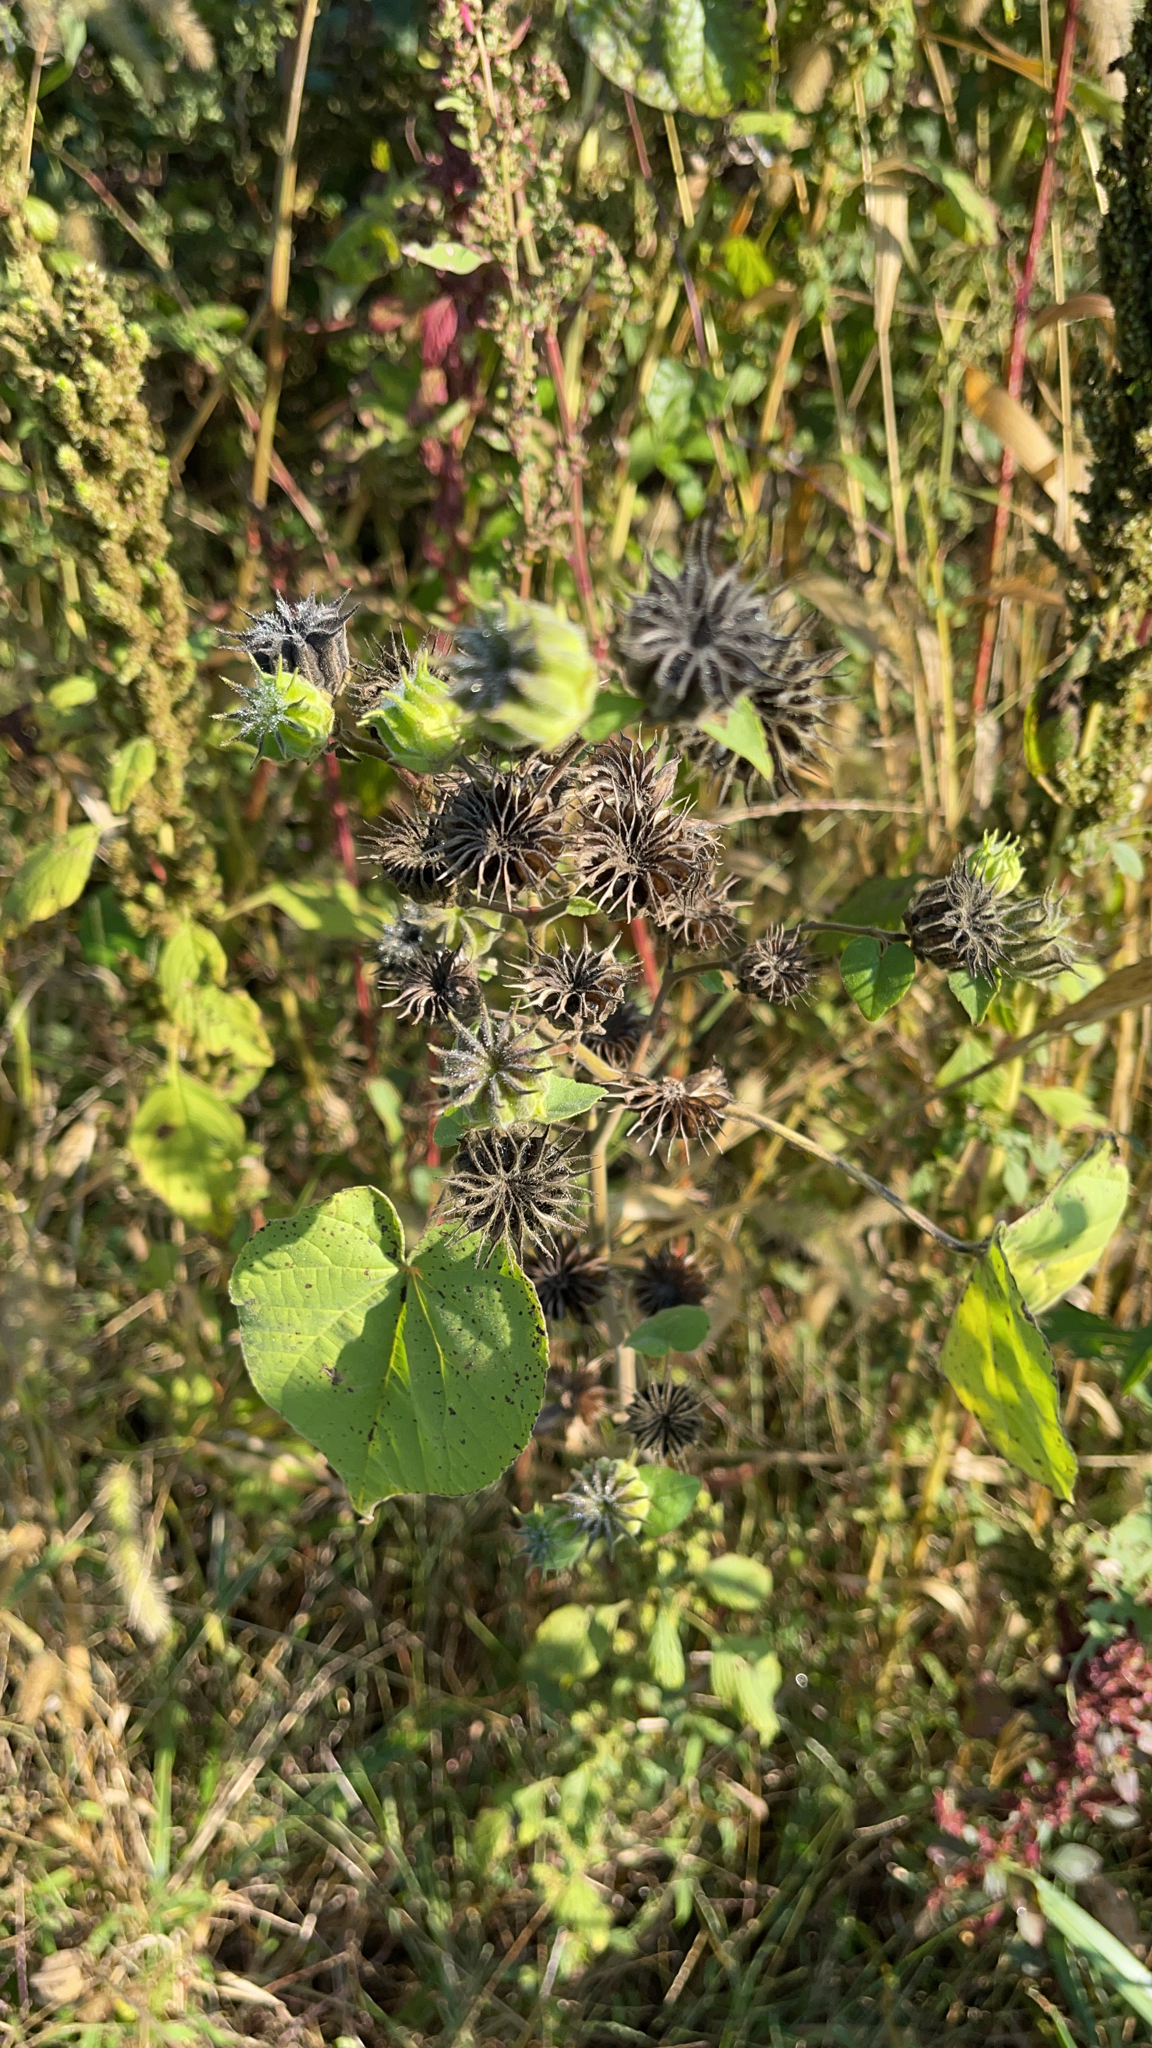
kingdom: Plantae
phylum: Tracheophyta
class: Magnoliopsida
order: Malvales
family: Malvaceae
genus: Abutilon
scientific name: Abutilon theophrasti
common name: Velvetleaf
